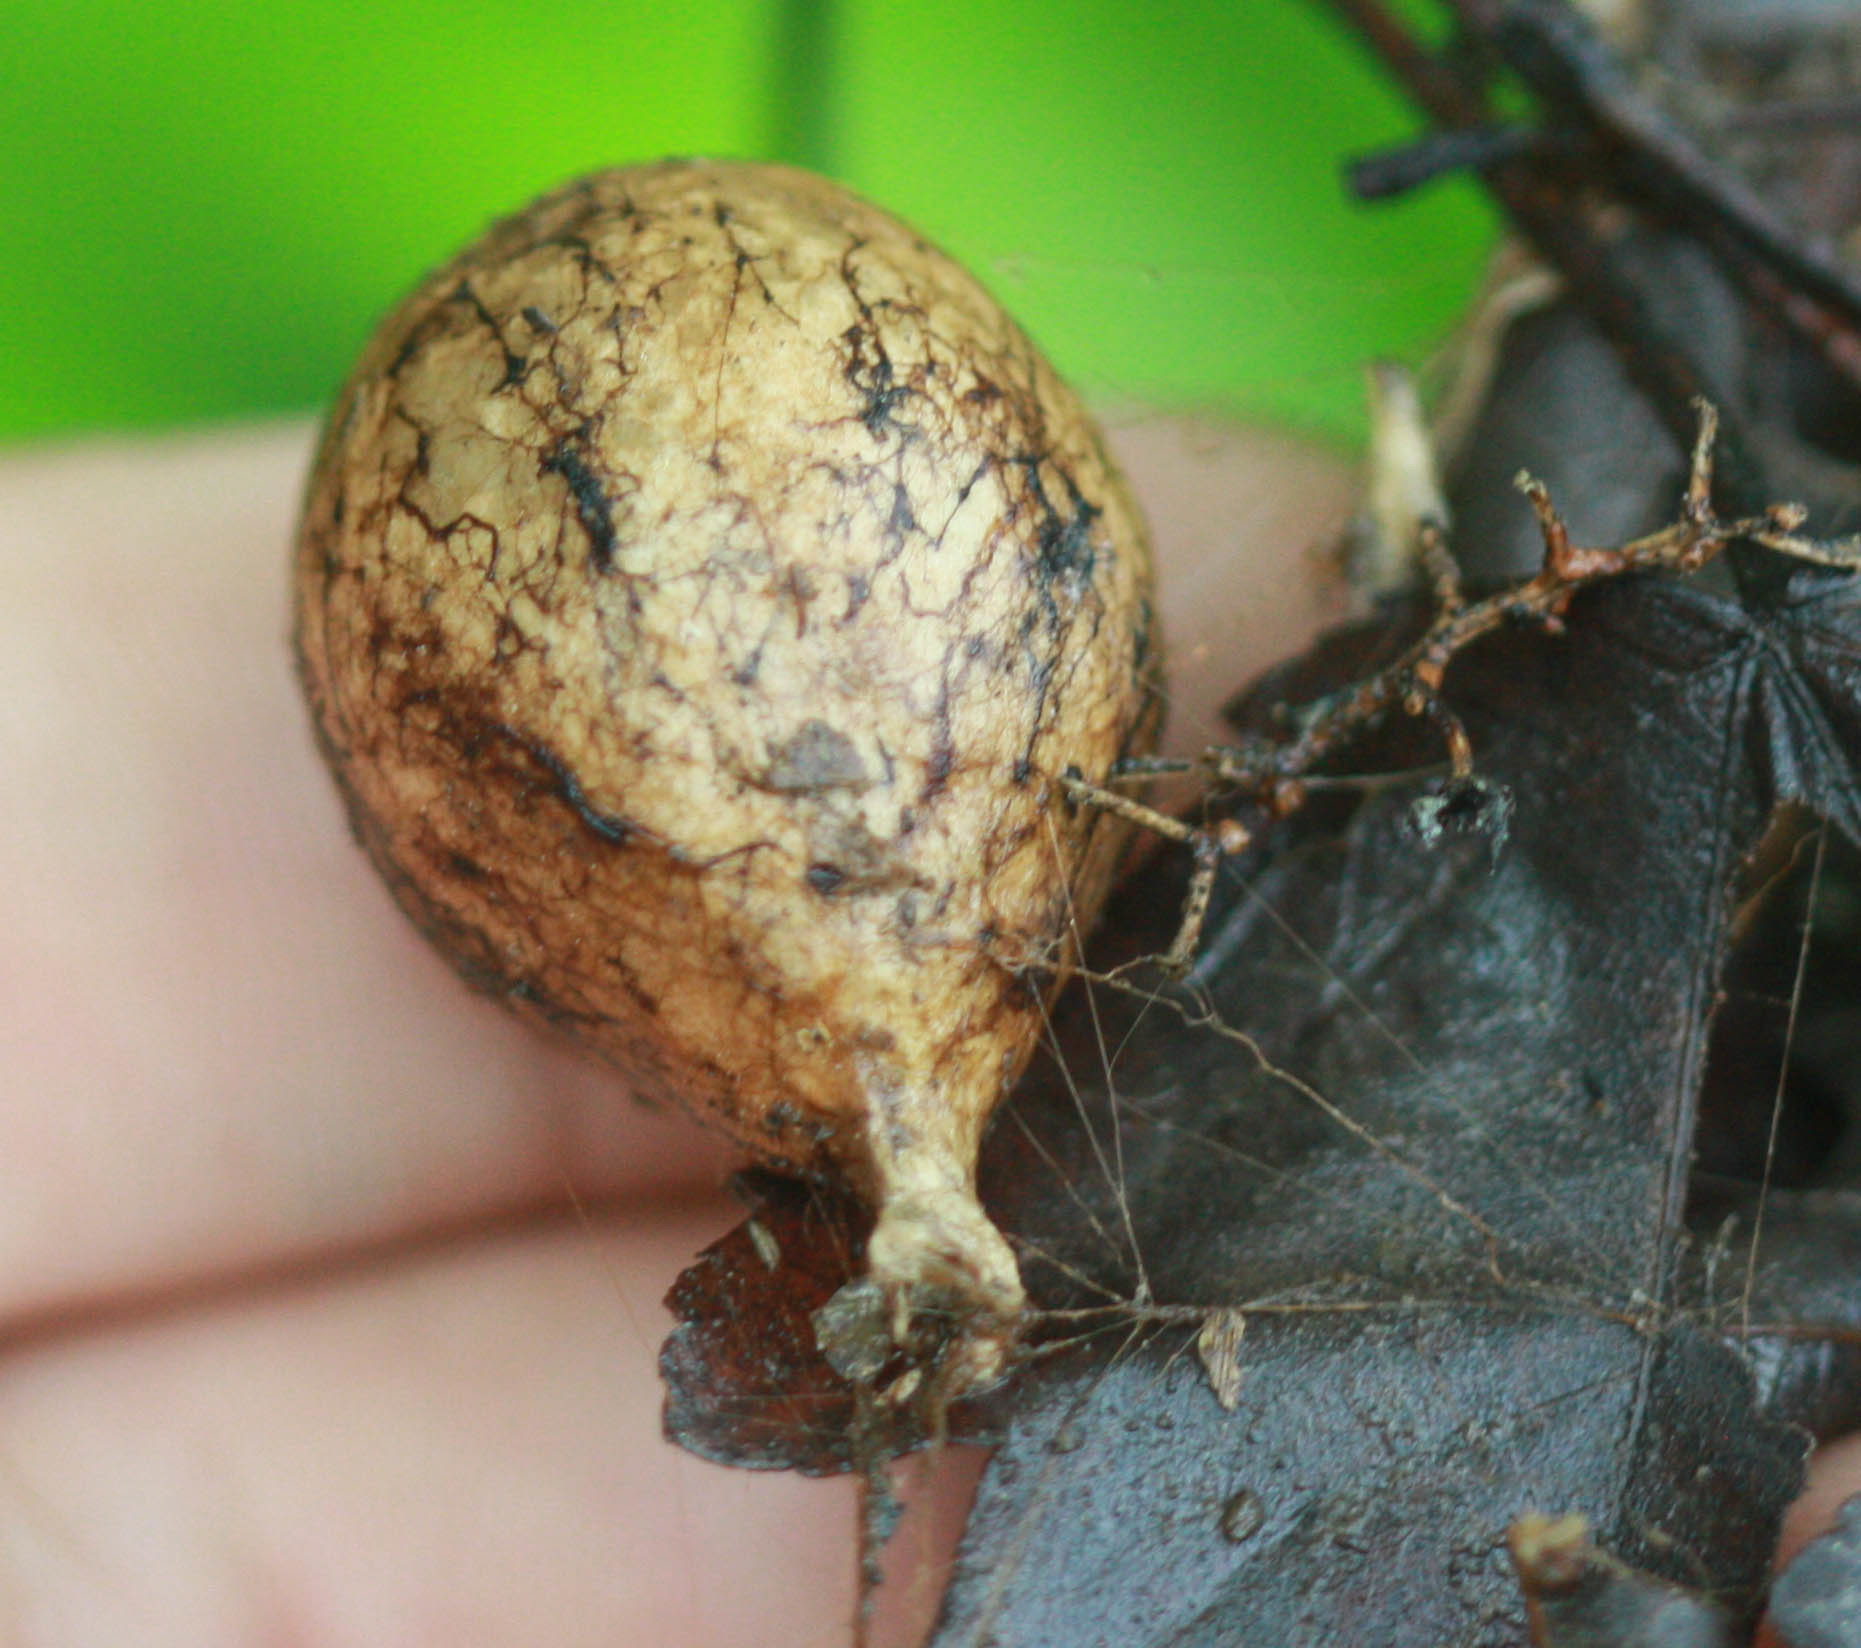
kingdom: Animalia
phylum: Arthropoda
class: Arachnida
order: Araneae
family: Araneidae
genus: Argiope
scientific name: Argiope aurantia
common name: Orb weavers
